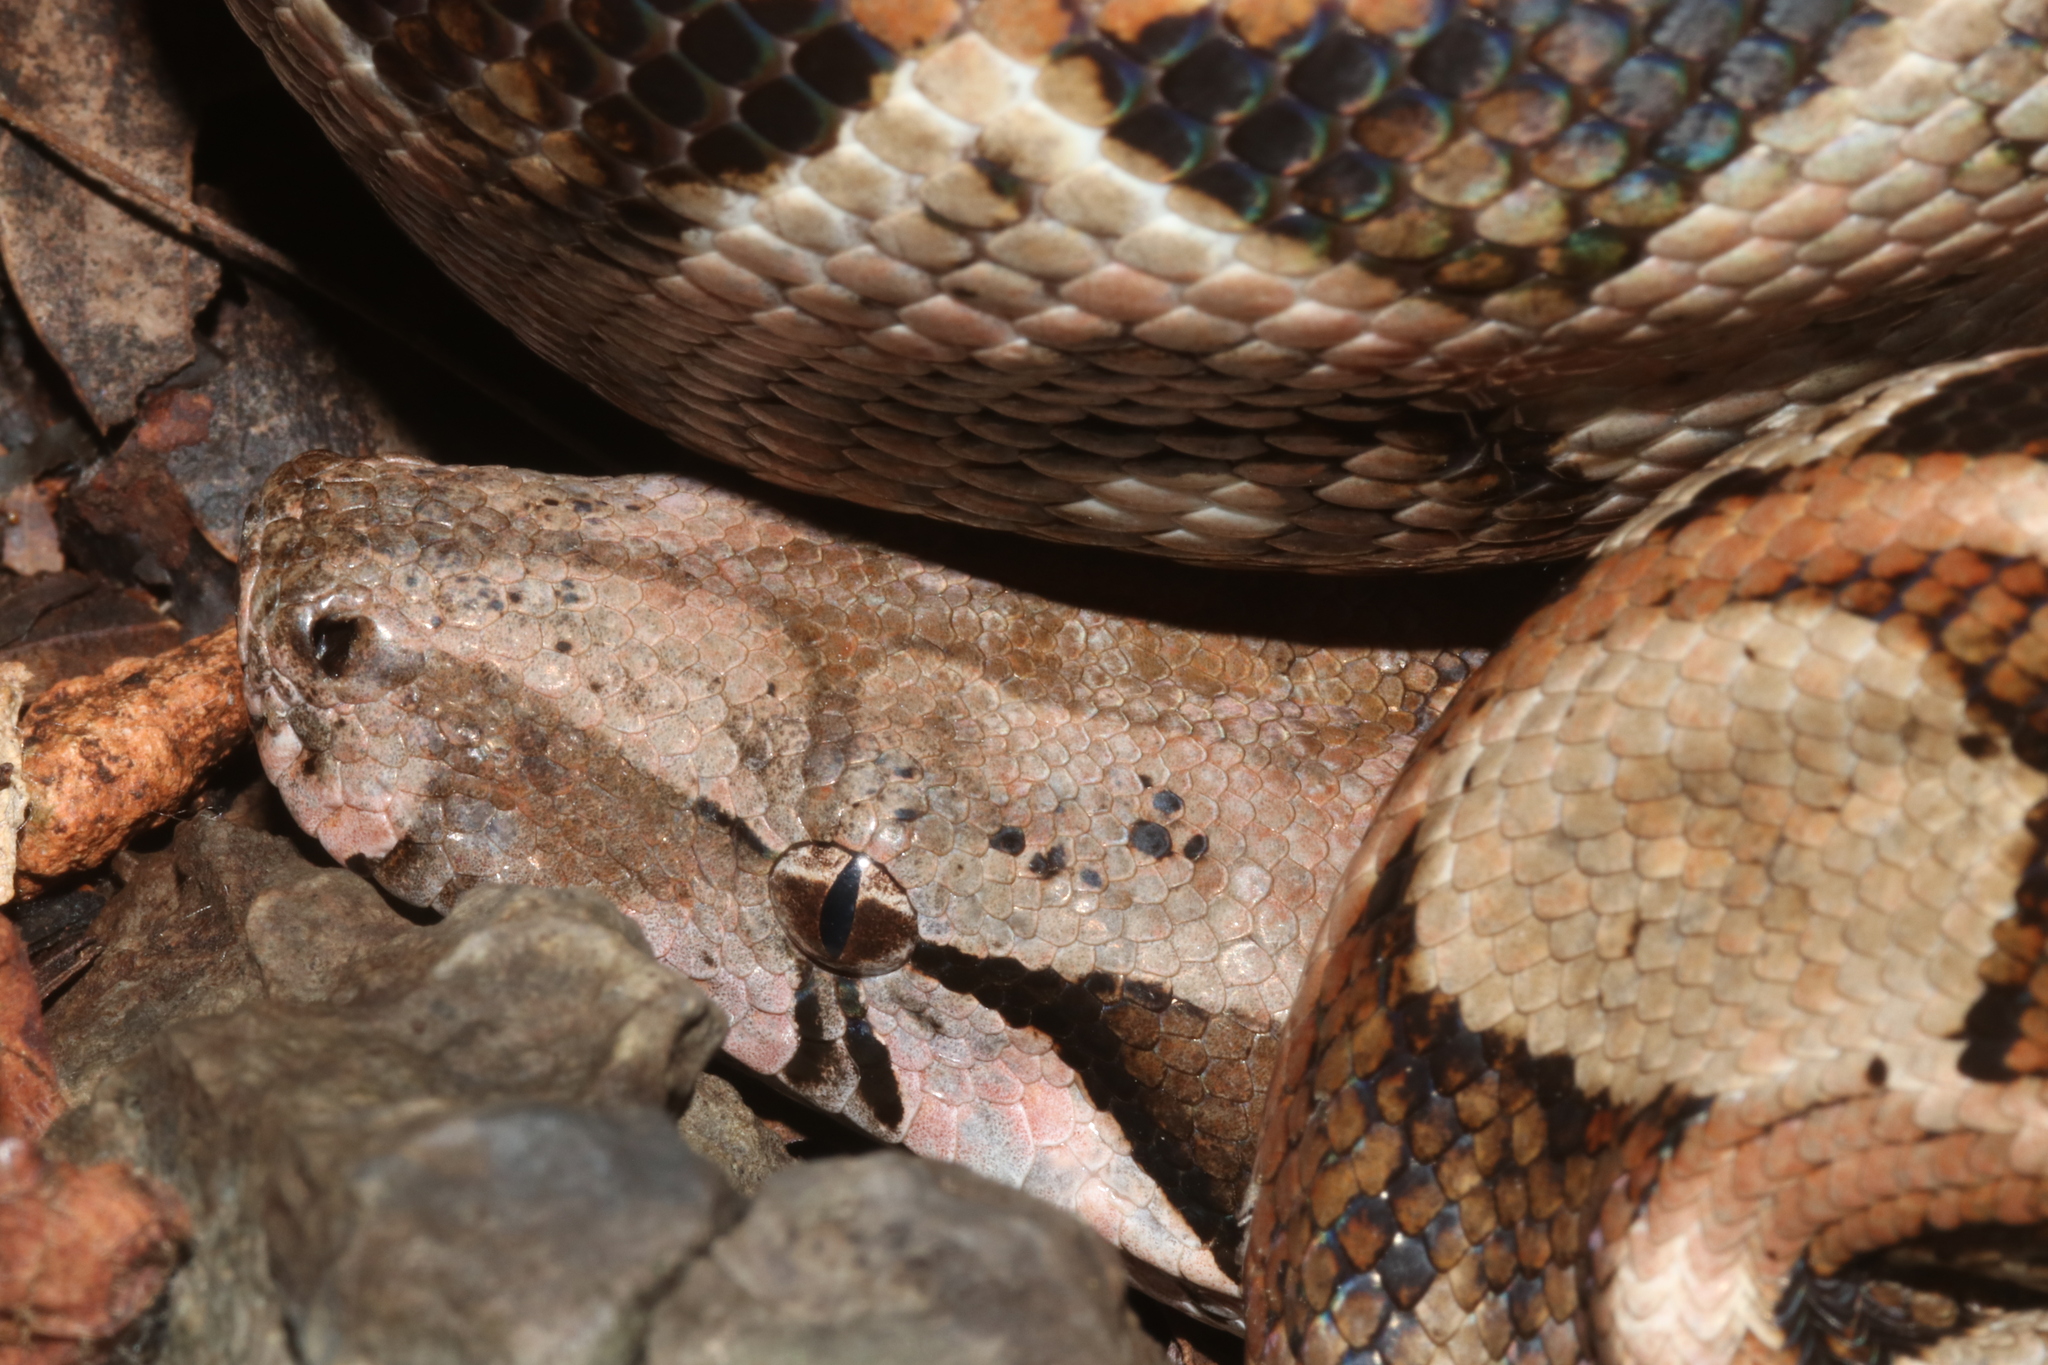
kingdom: Animalia
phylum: Chordata
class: Squamata
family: Boidae
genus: Boa
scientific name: Boa imperator
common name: Central american boa
